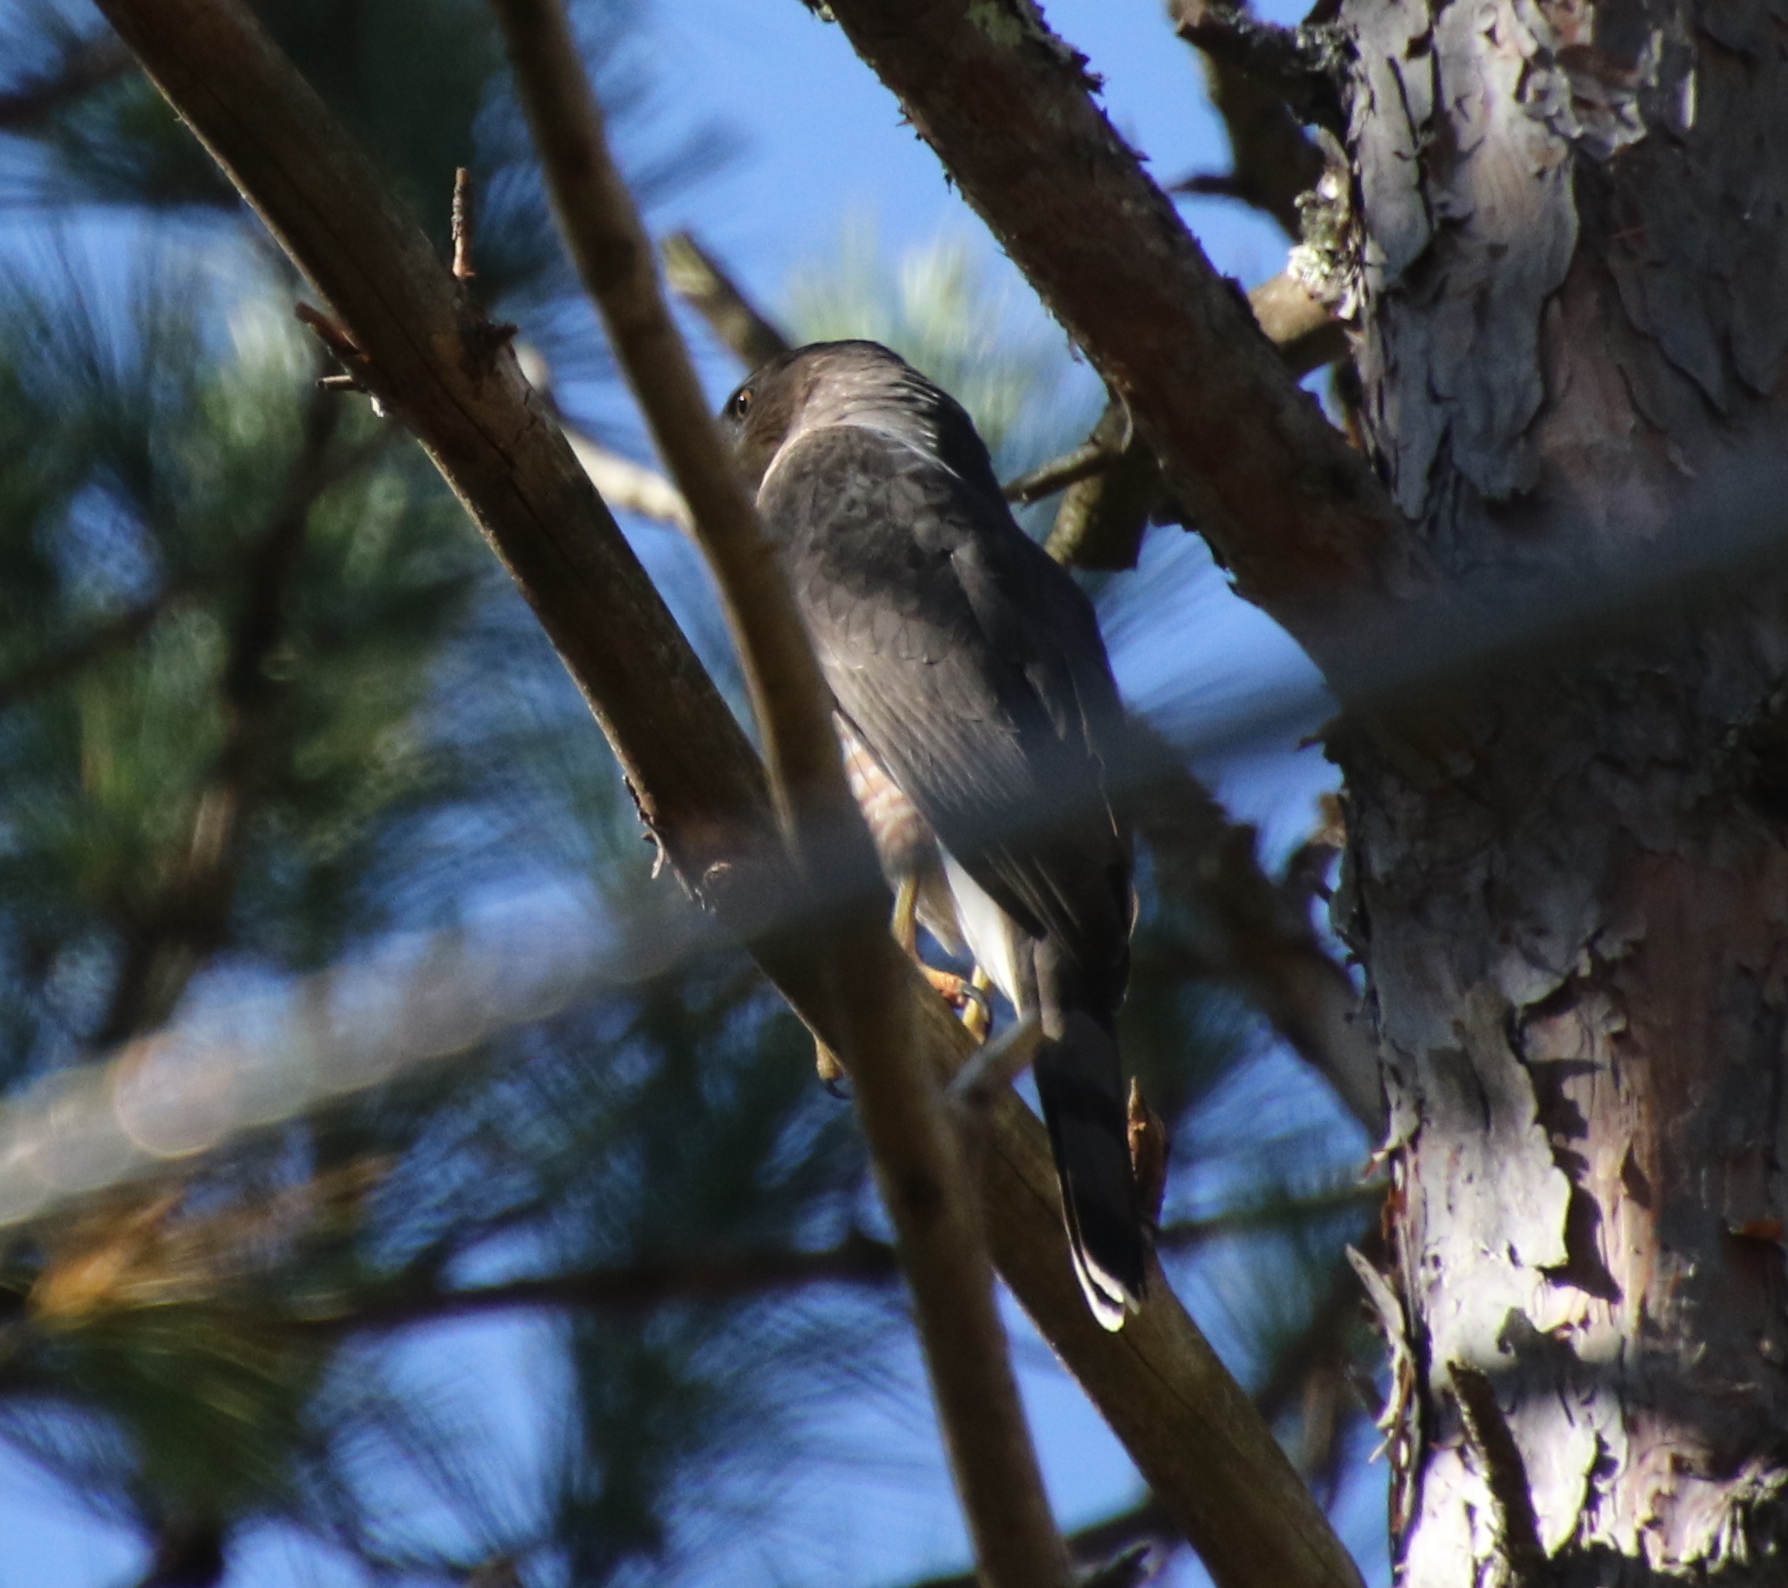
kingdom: Animalia
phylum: Chordata
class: Aves
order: Accipitriformes
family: Accipitridae
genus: Accipiter
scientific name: Accipiter cooperii
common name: Cooper's hawk
